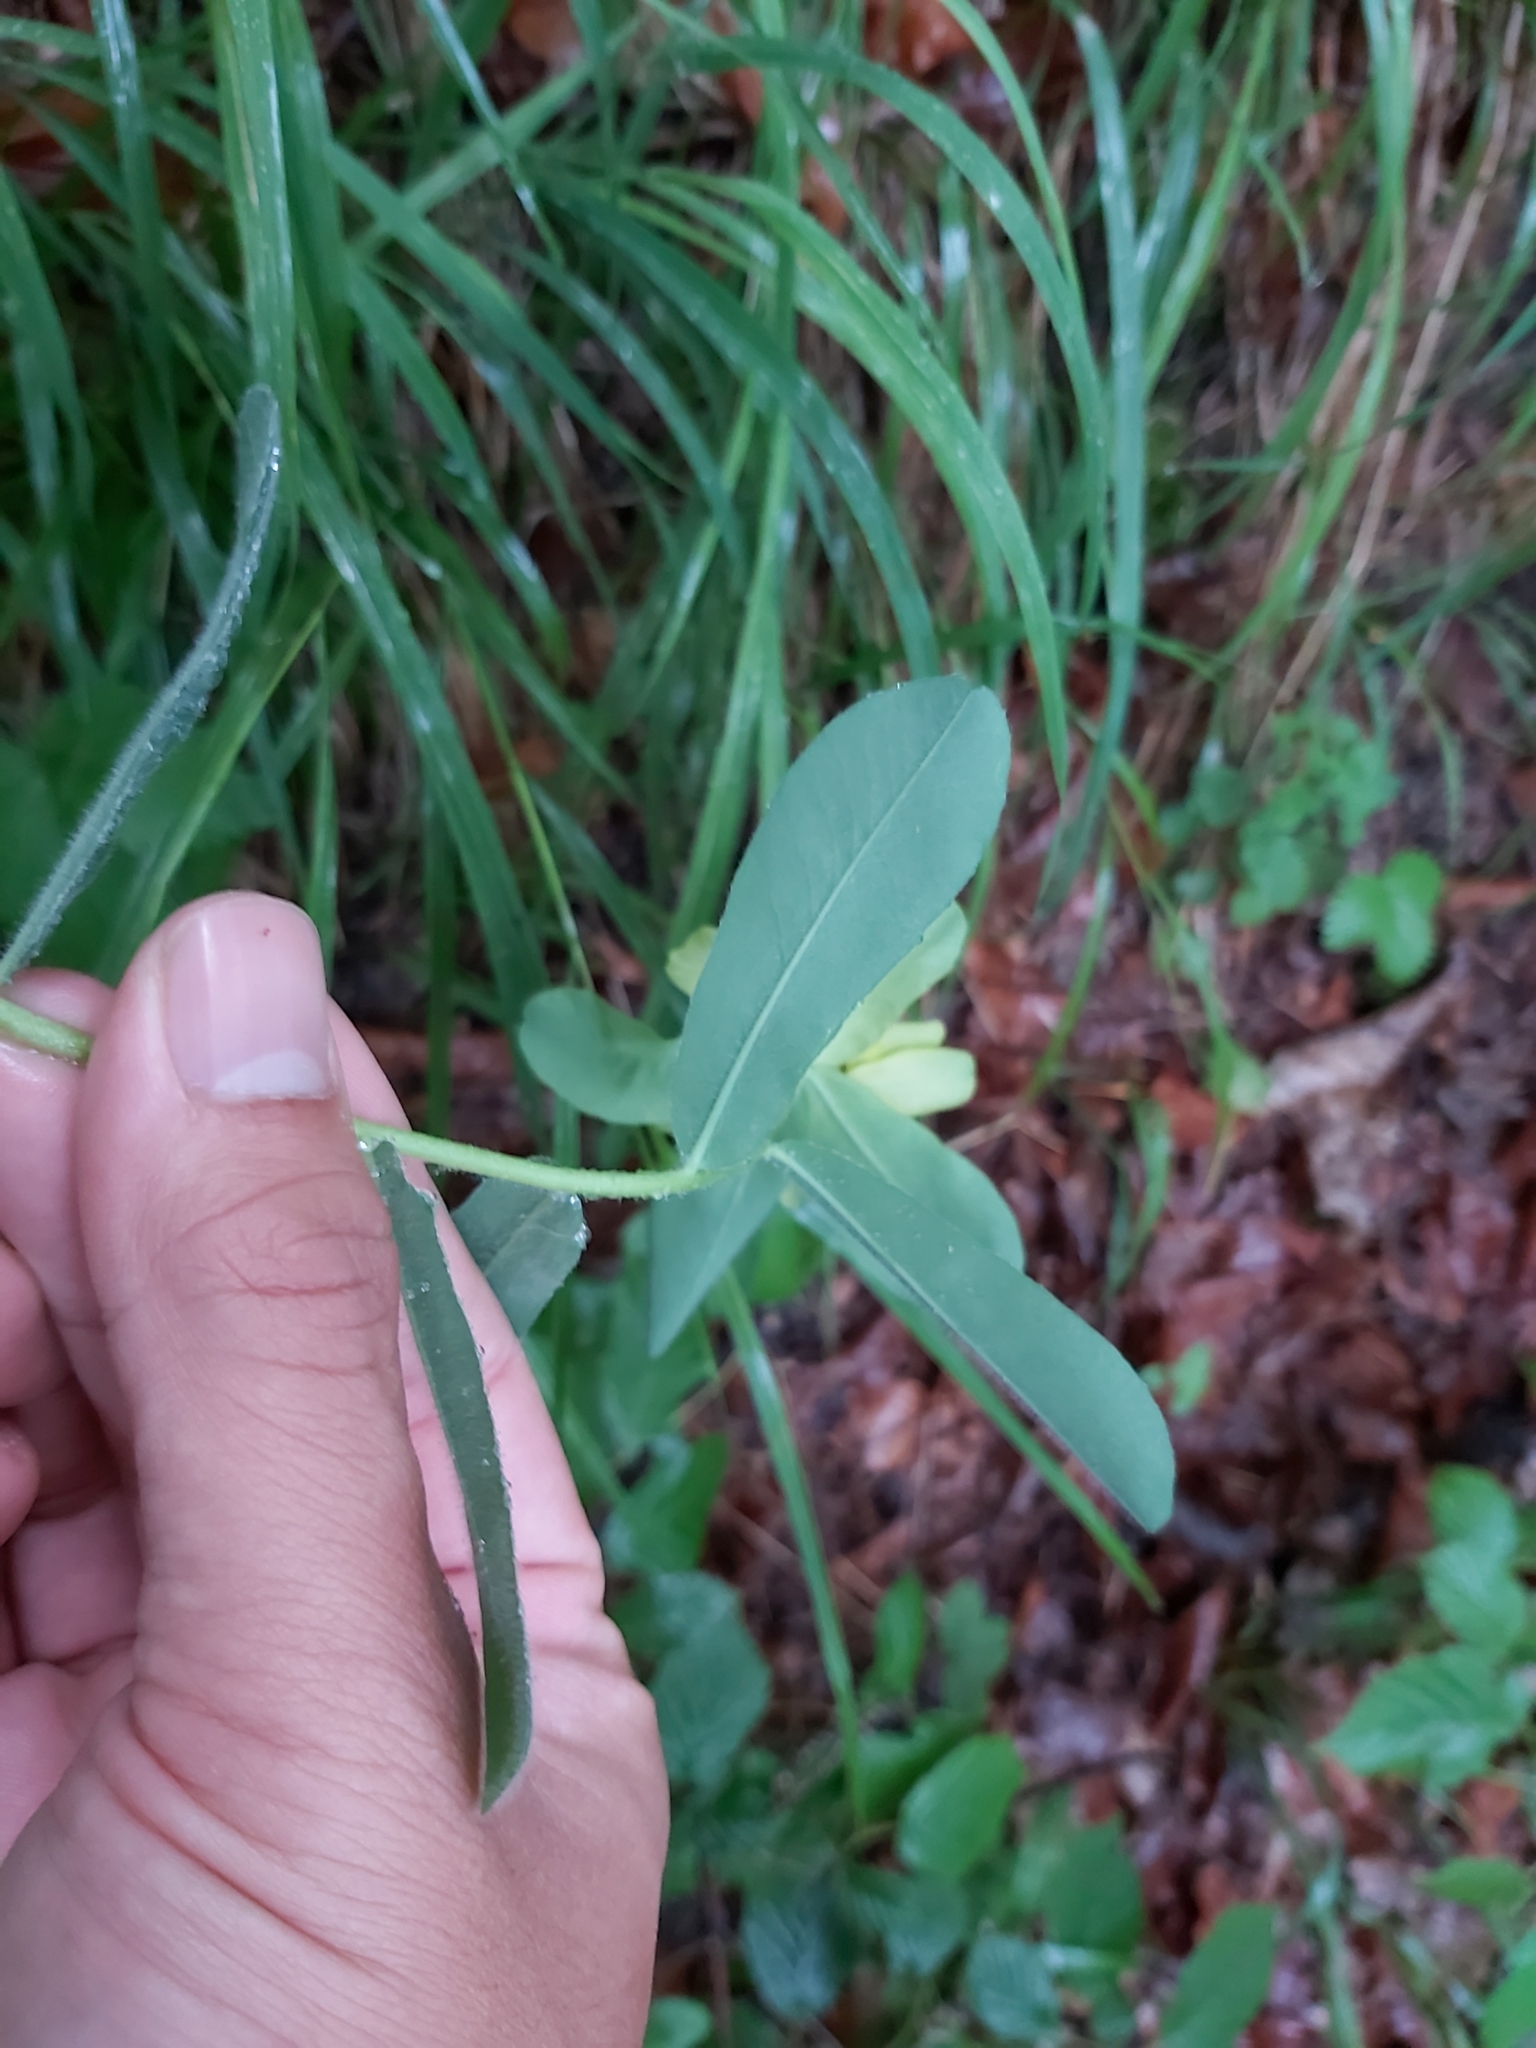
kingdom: Plantae
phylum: Tracheophyta
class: Magnoliopsida
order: Malpighiales
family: Euphorbiaceae
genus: Euphorbia
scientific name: Euphorbia epithymoides
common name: Cushion spurge
